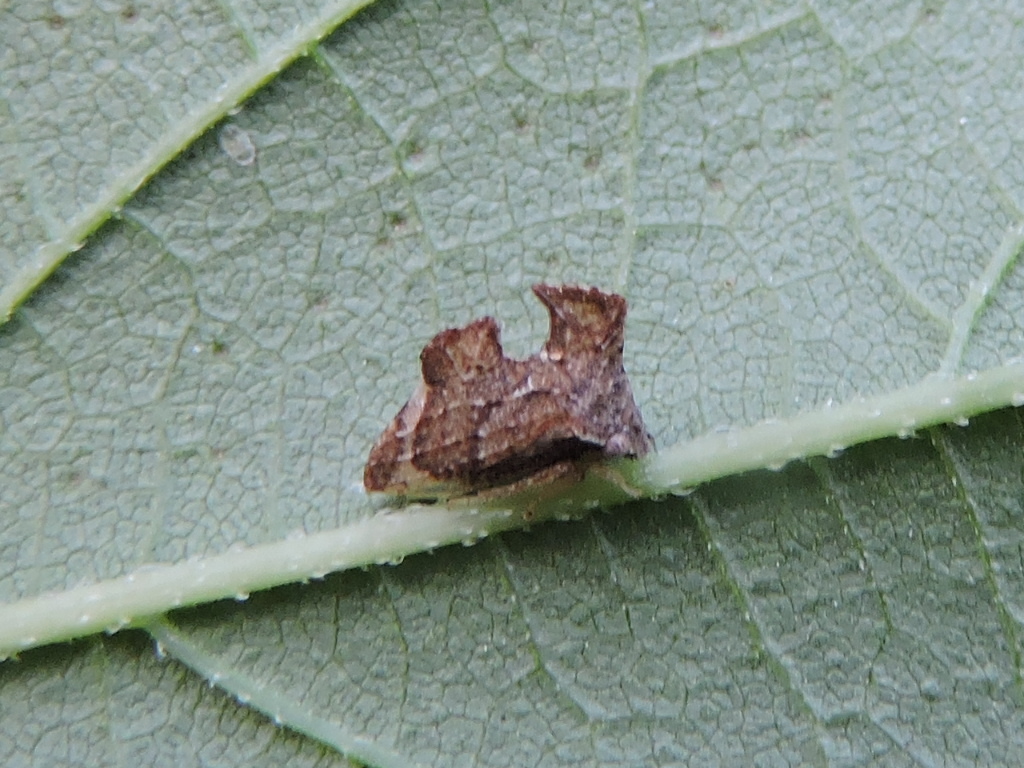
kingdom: Animalia
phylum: Arthropoda
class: Insecta
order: Hemiptera
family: Membracidae
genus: Entylia
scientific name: Entylia carinata
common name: Keeled treehopper
